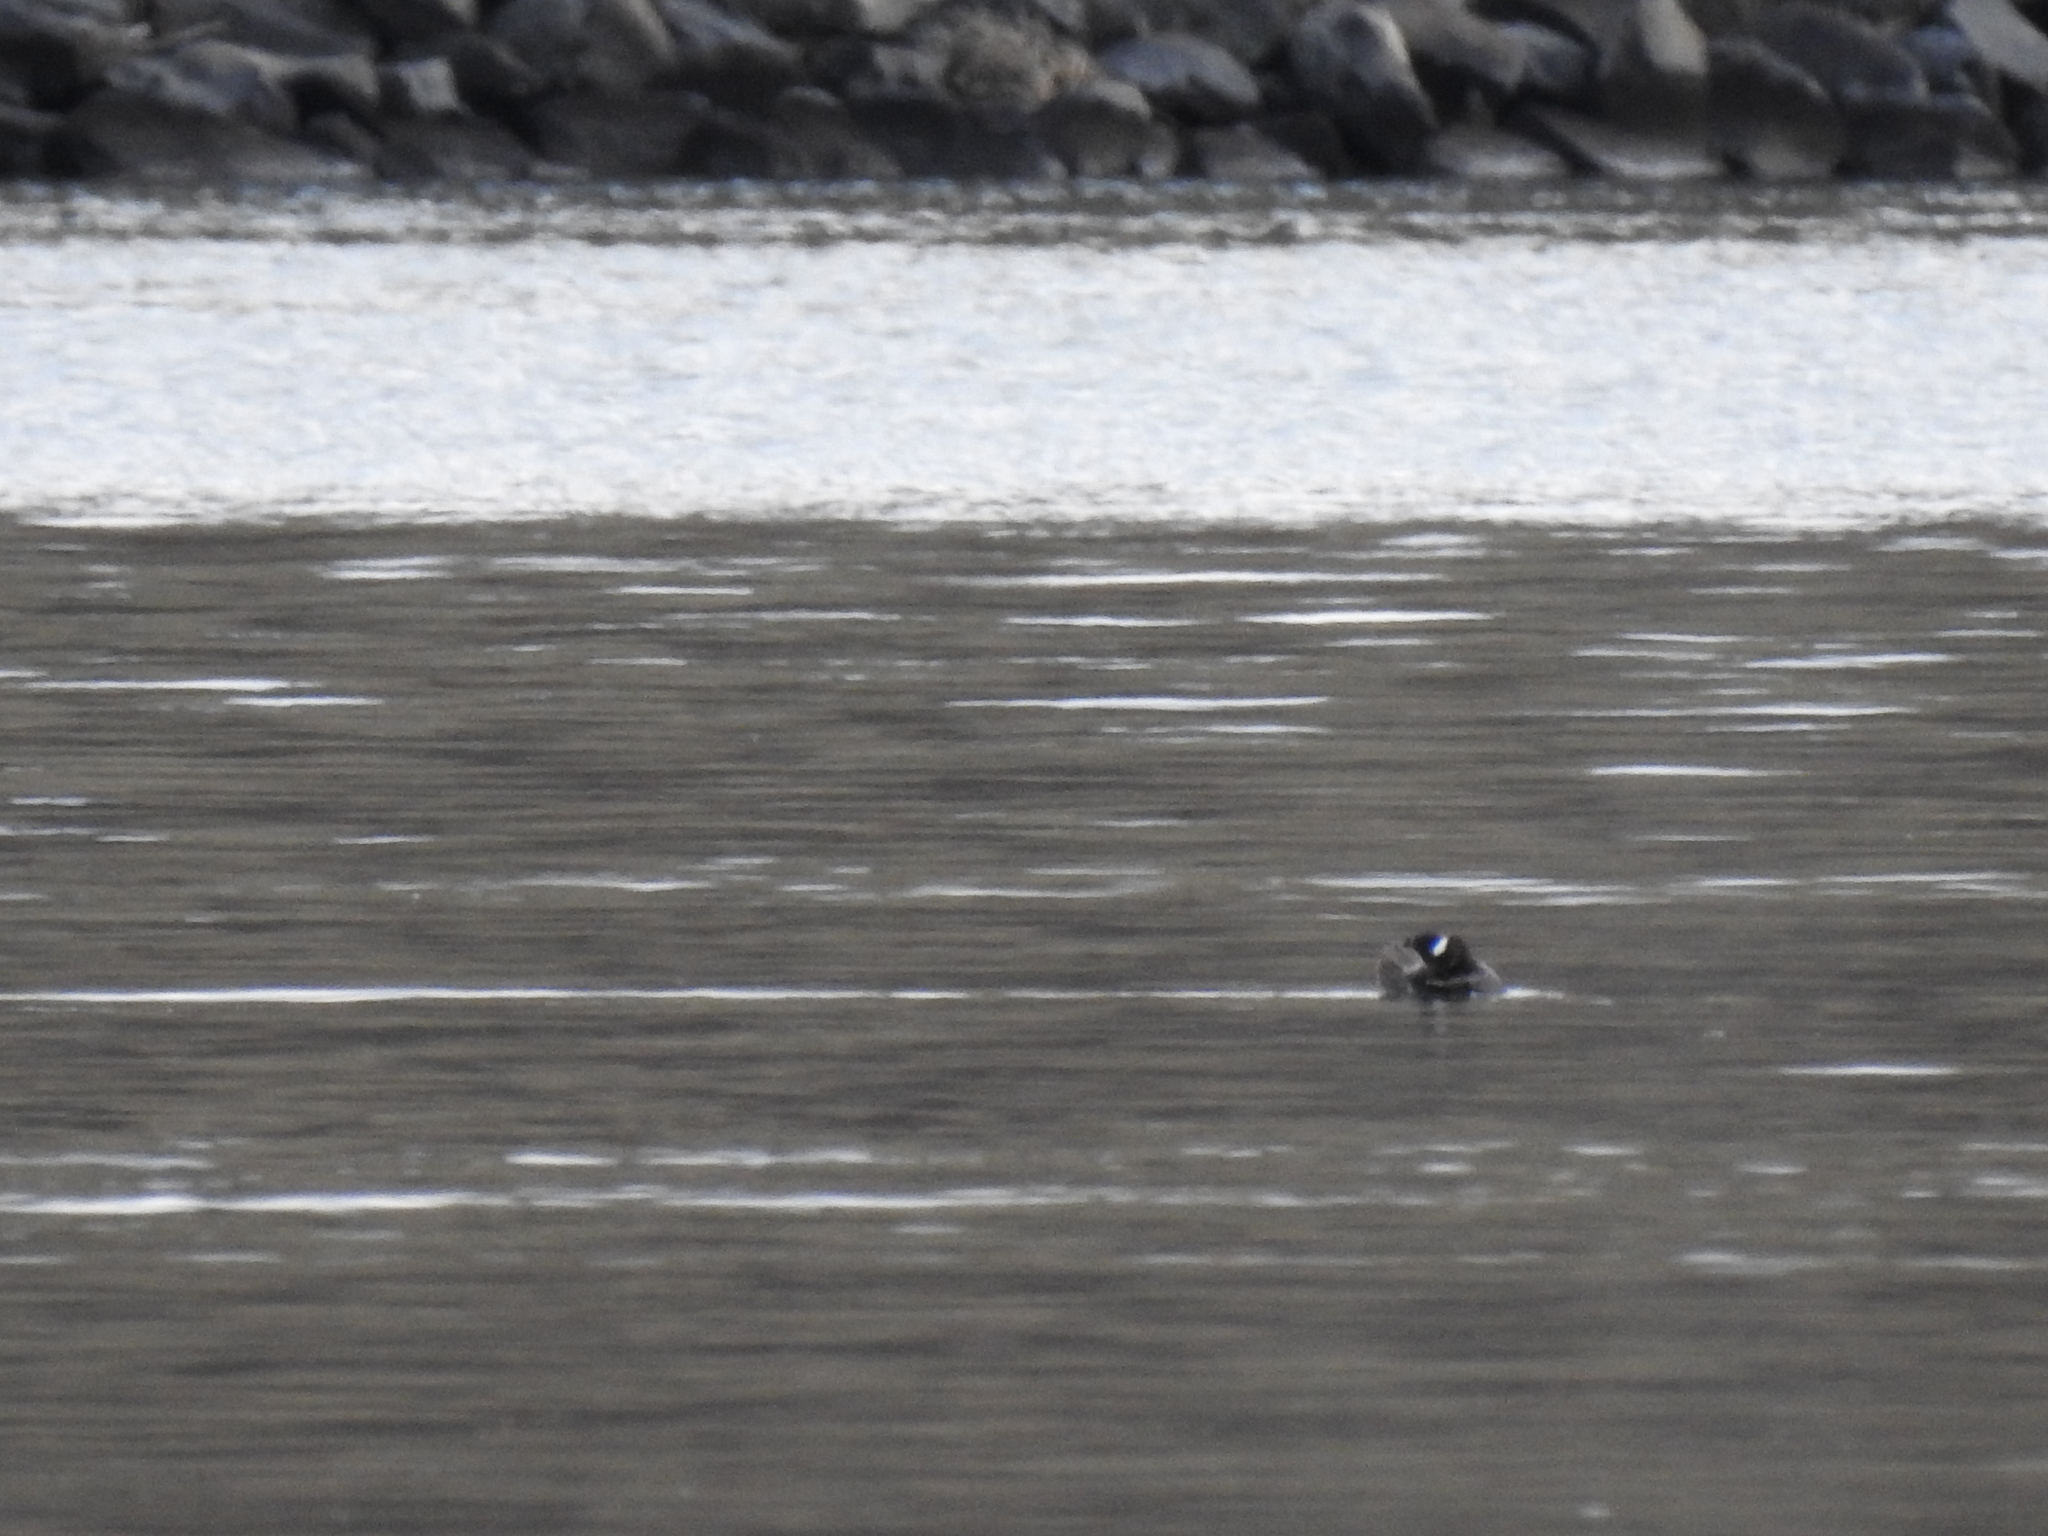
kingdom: Animalia
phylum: Chordata
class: Aves
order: Anseriformes
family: Anatidae
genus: Bucephala
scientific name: Bucephala albeola
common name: Bufflehead
